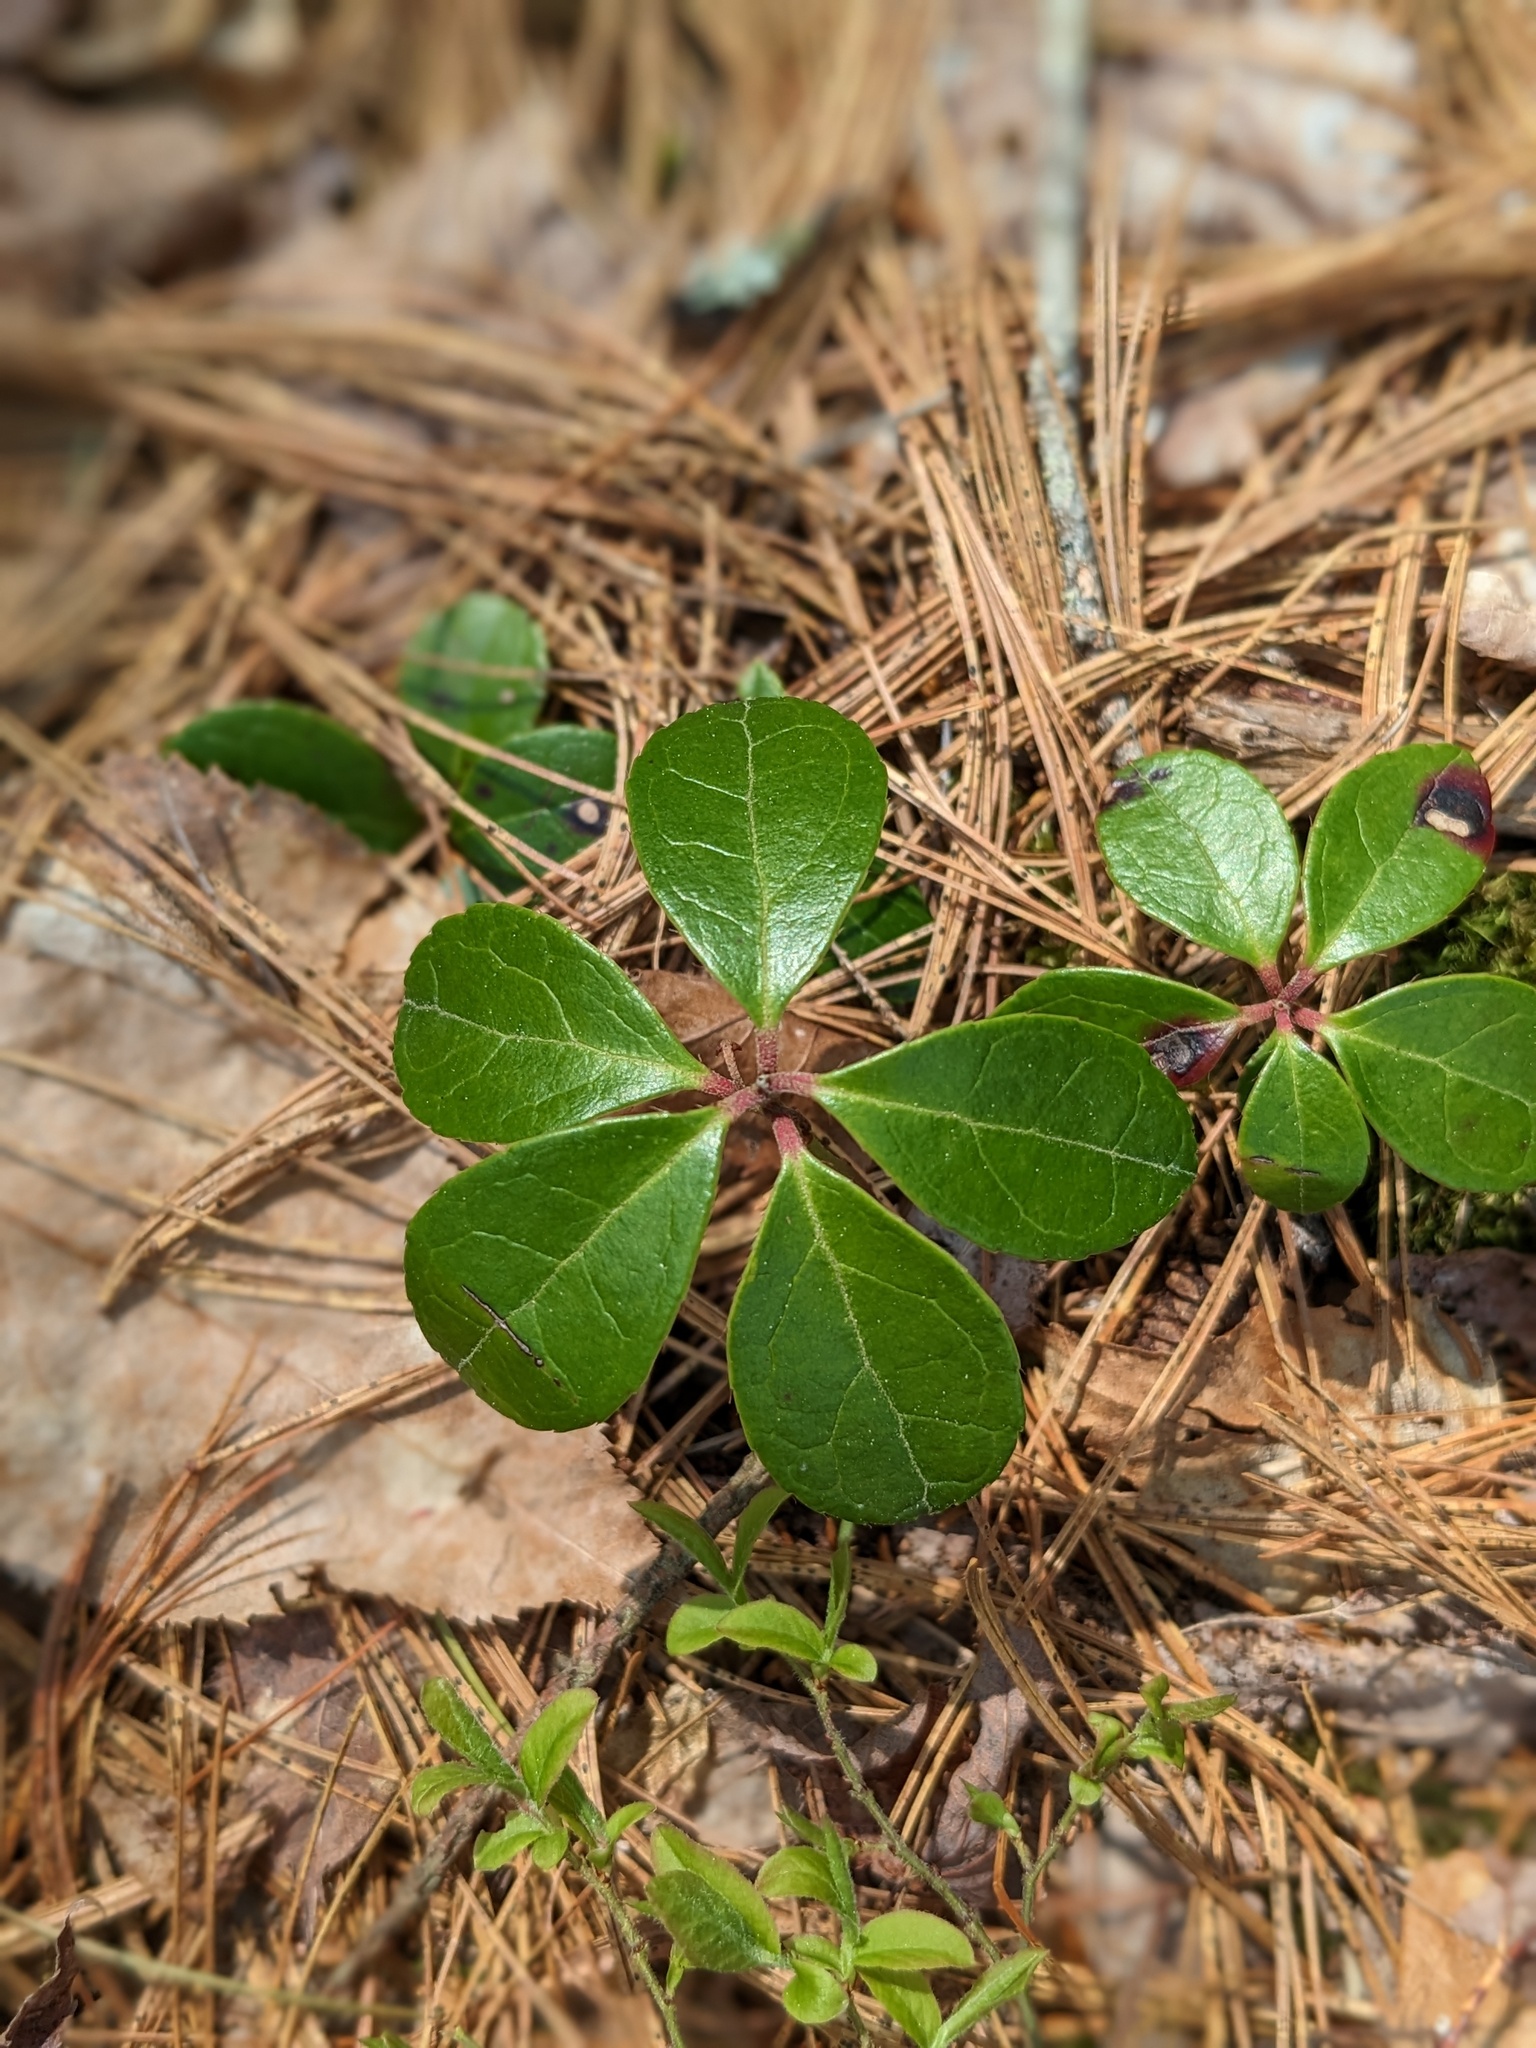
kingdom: Plantae
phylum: Tracheophyta
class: Magnoliopsida
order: Ericales
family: Ericaceae
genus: Gaultheria
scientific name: Gaultheria procumbens
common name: Checkerberry
